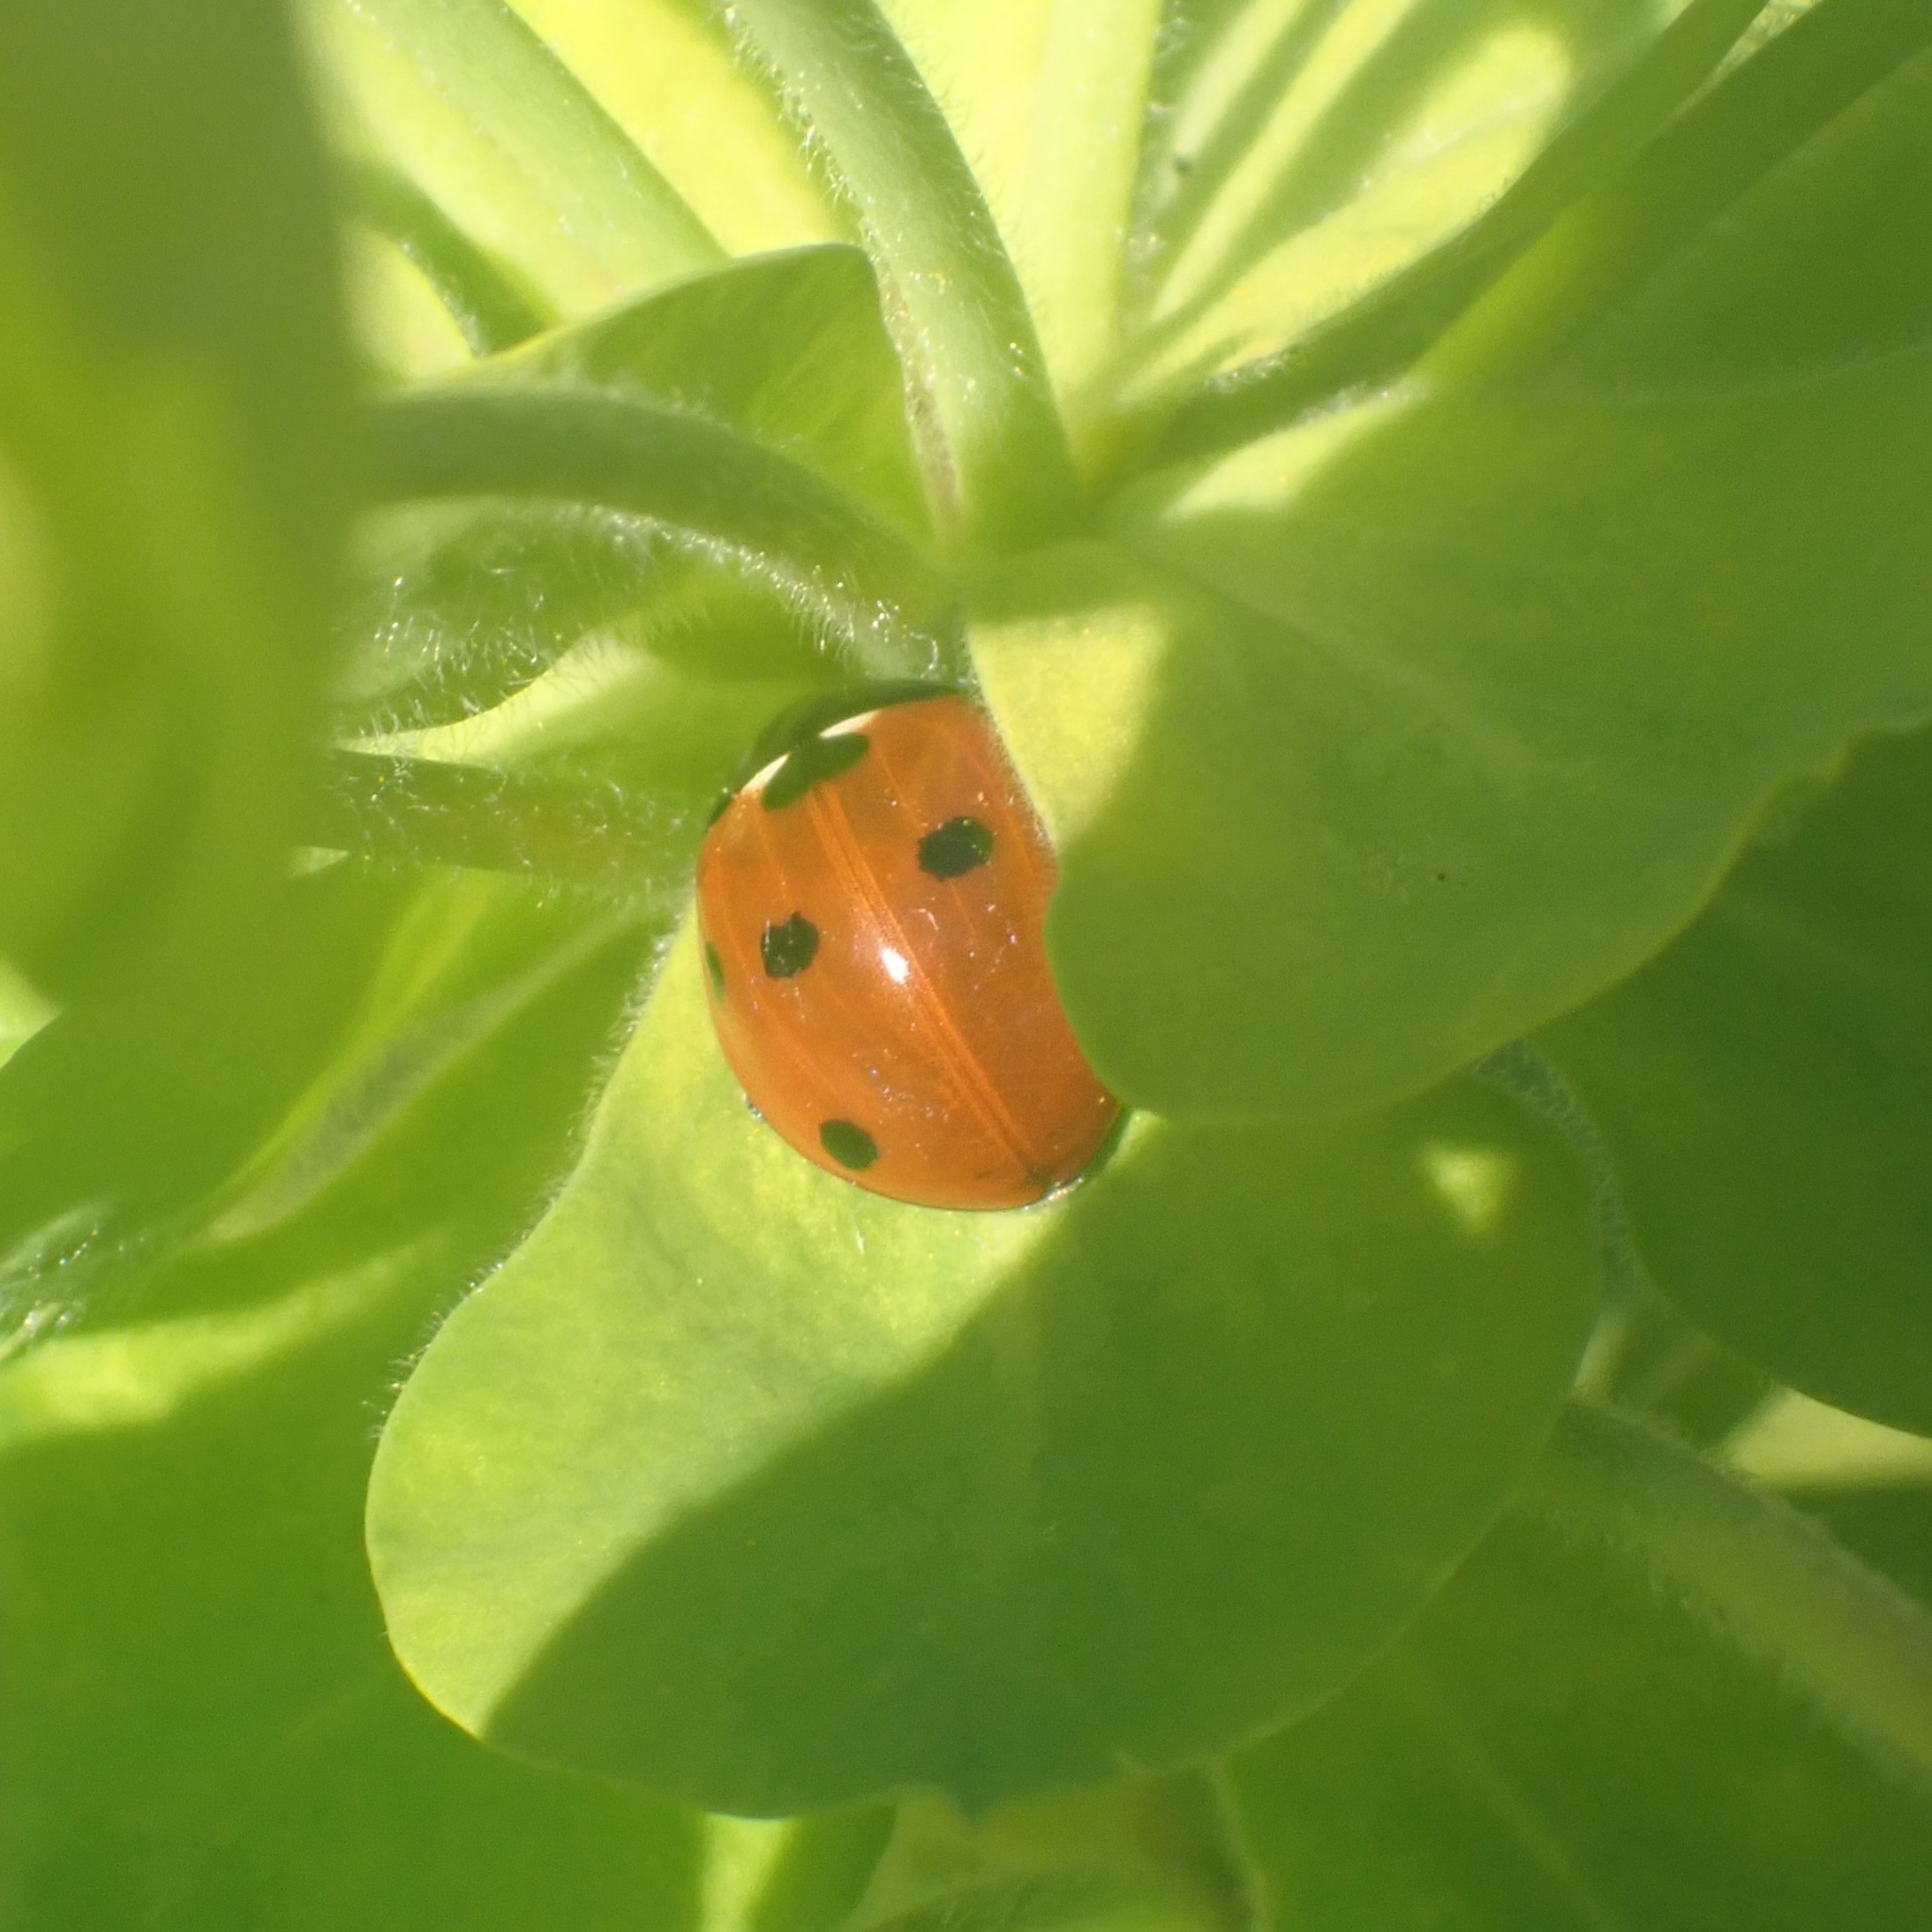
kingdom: Animalia
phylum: Arthropoda
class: Insecta
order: Coleoptera
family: Coccinellidae
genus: Coccinella
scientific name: Coccinella septempunctata
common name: Sevenspotted lady beetle
